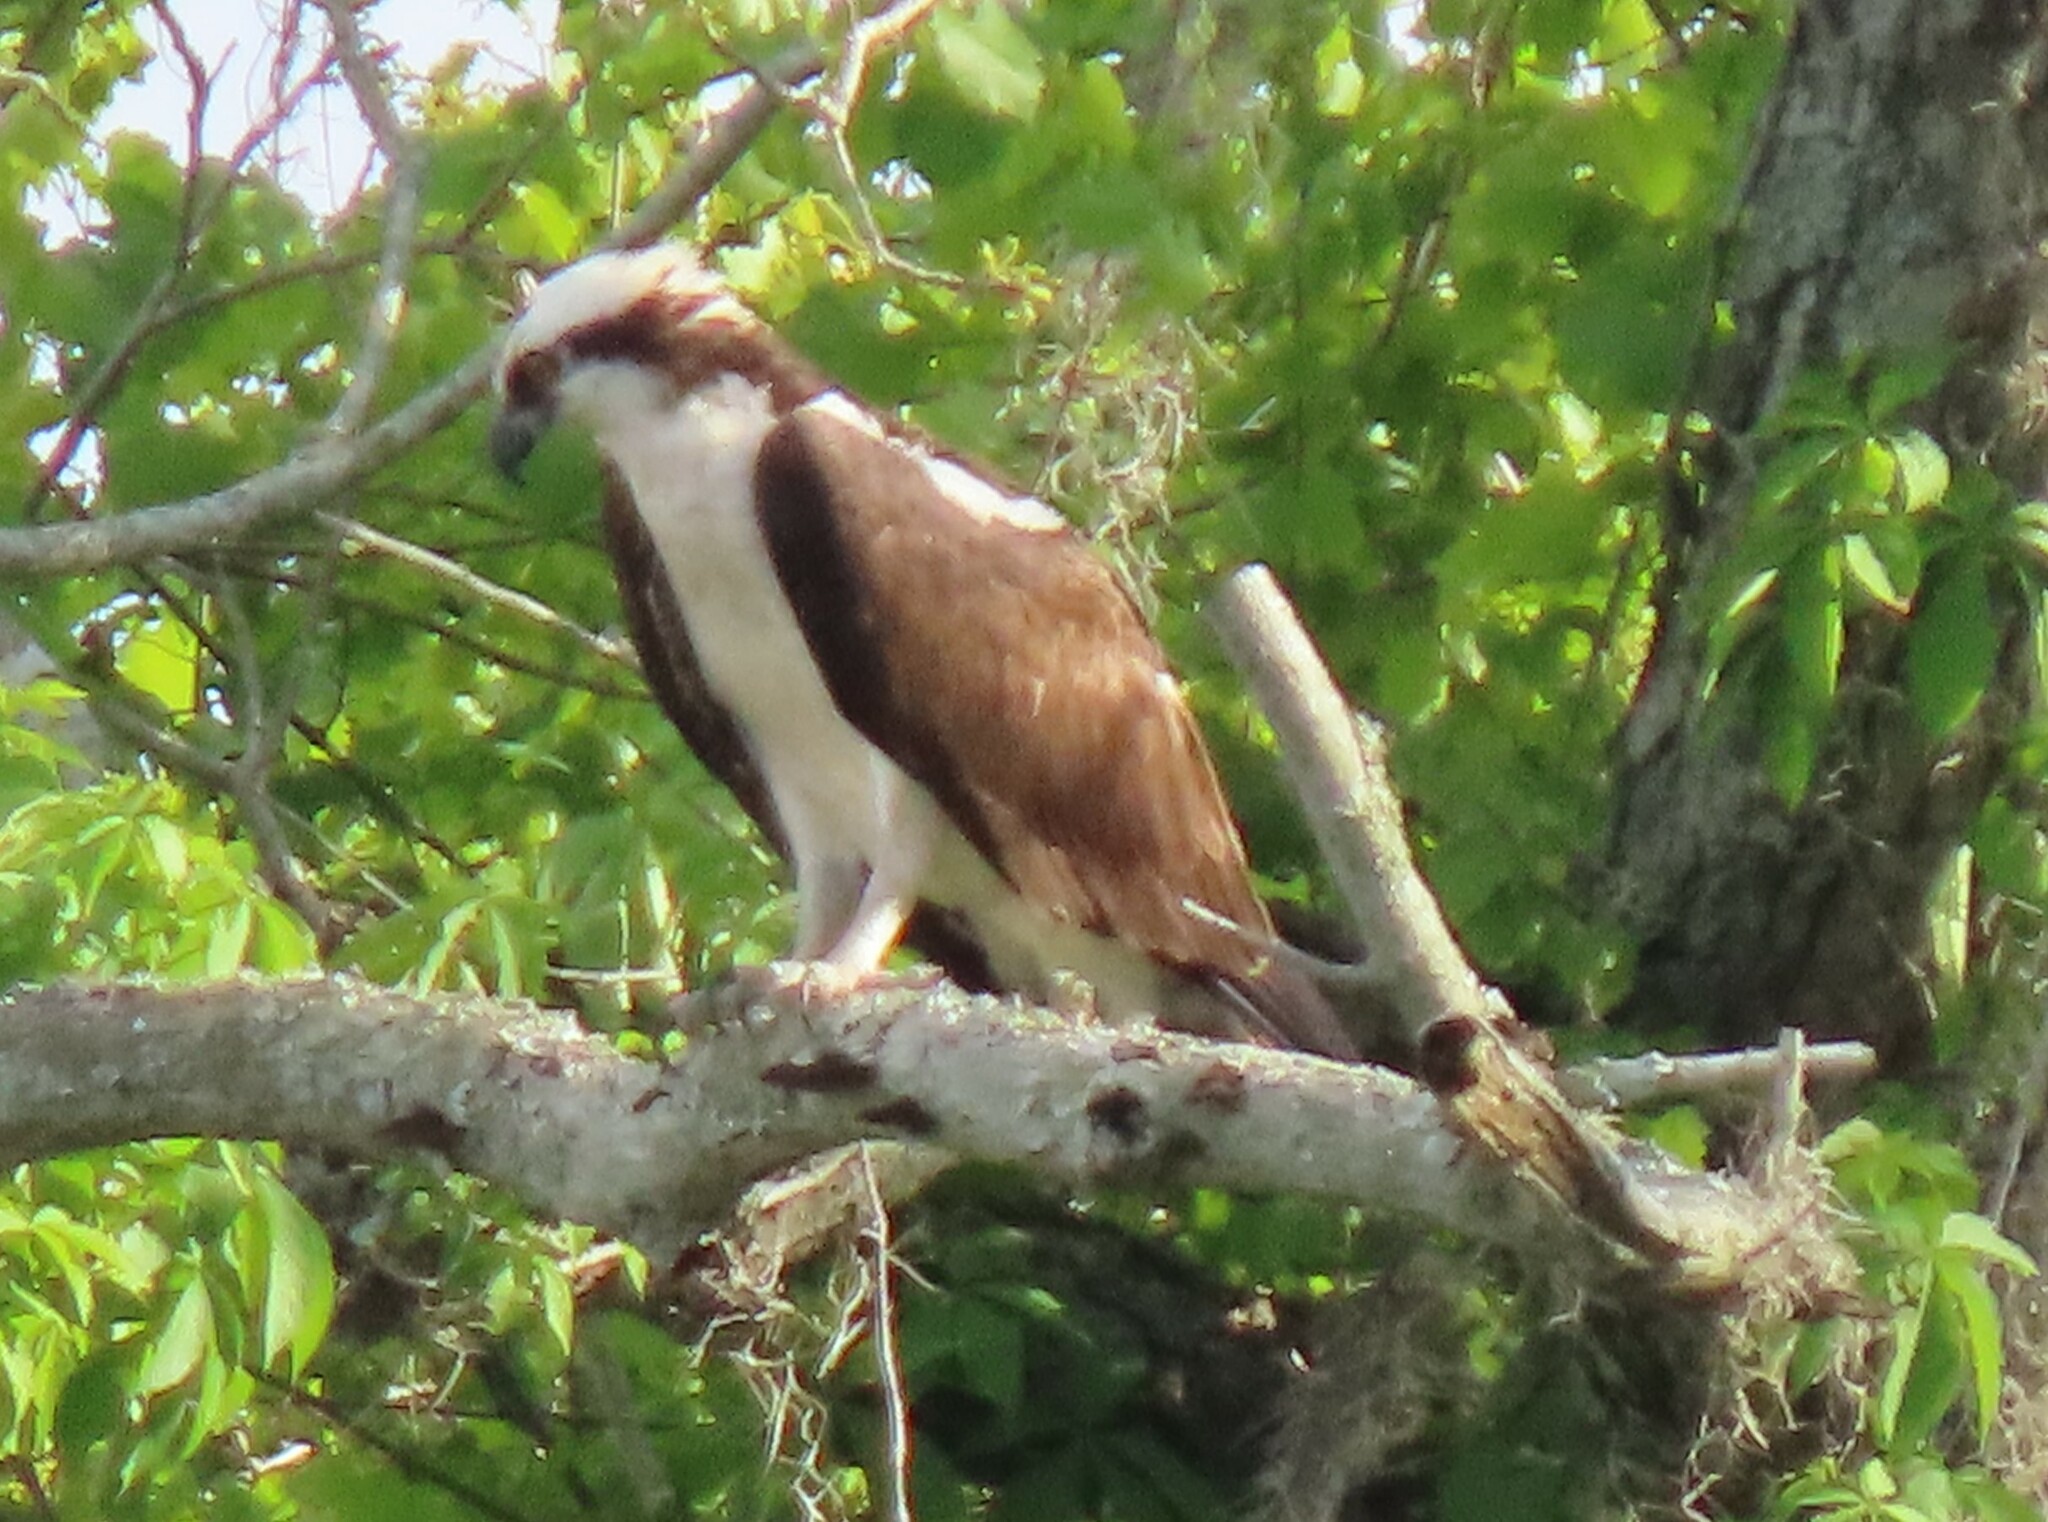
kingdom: Animalia
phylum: Chordata
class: Aves
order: Accipitriformes
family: Pandionidae
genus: Pandion
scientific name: Pandion haliaetus
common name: Osprey
